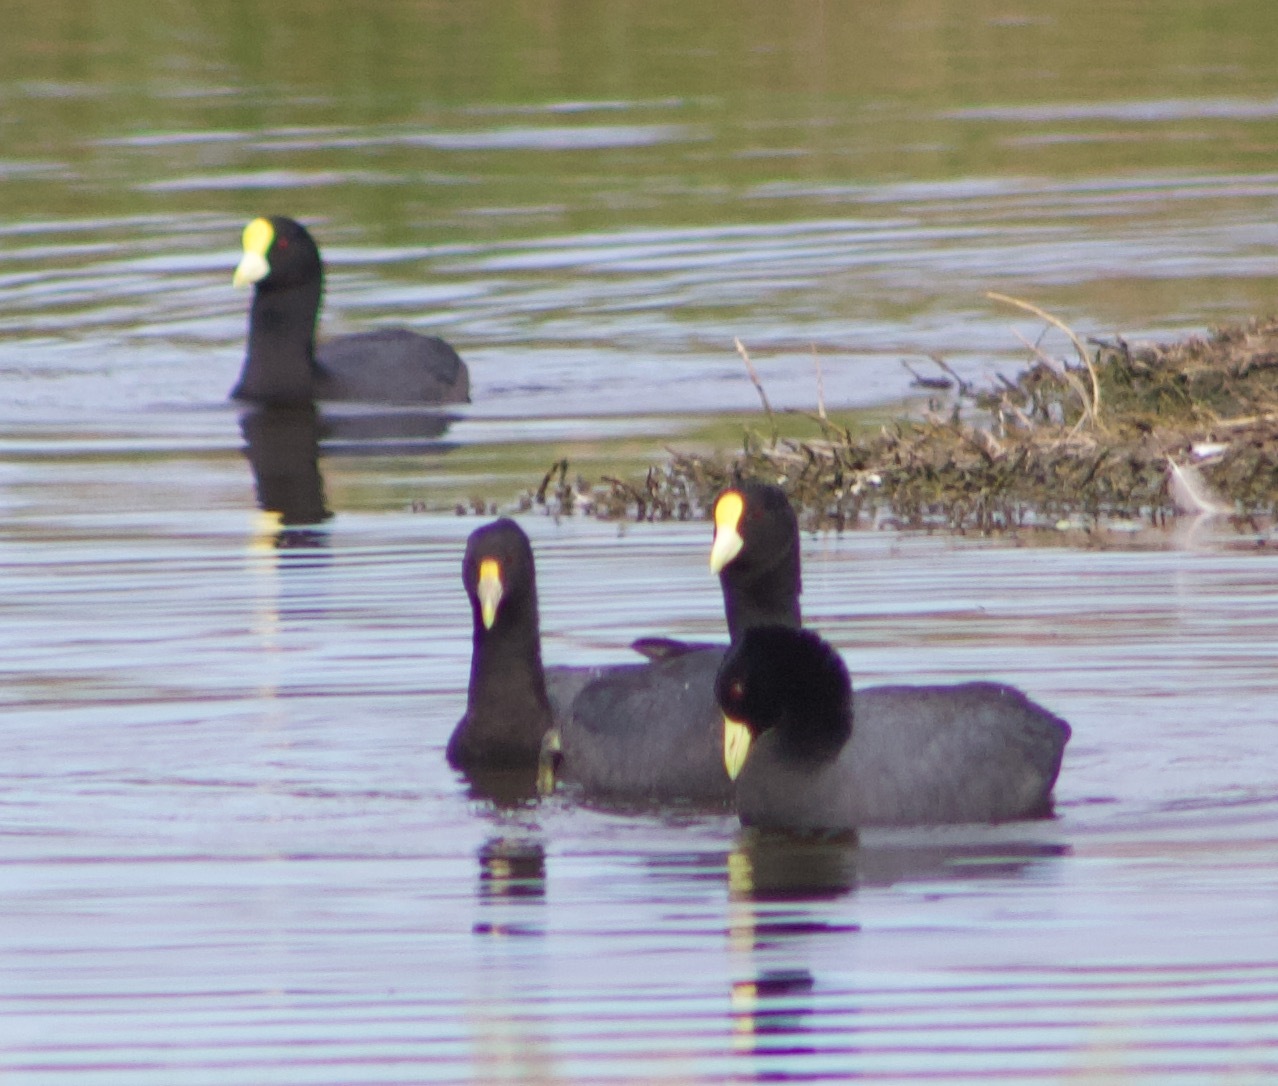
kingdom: Animalia
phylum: Chordata
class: Aves
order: Gruiformes
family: Rallidae
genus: Fulica
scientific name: Fulica leucoptera
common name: White-winged coot
